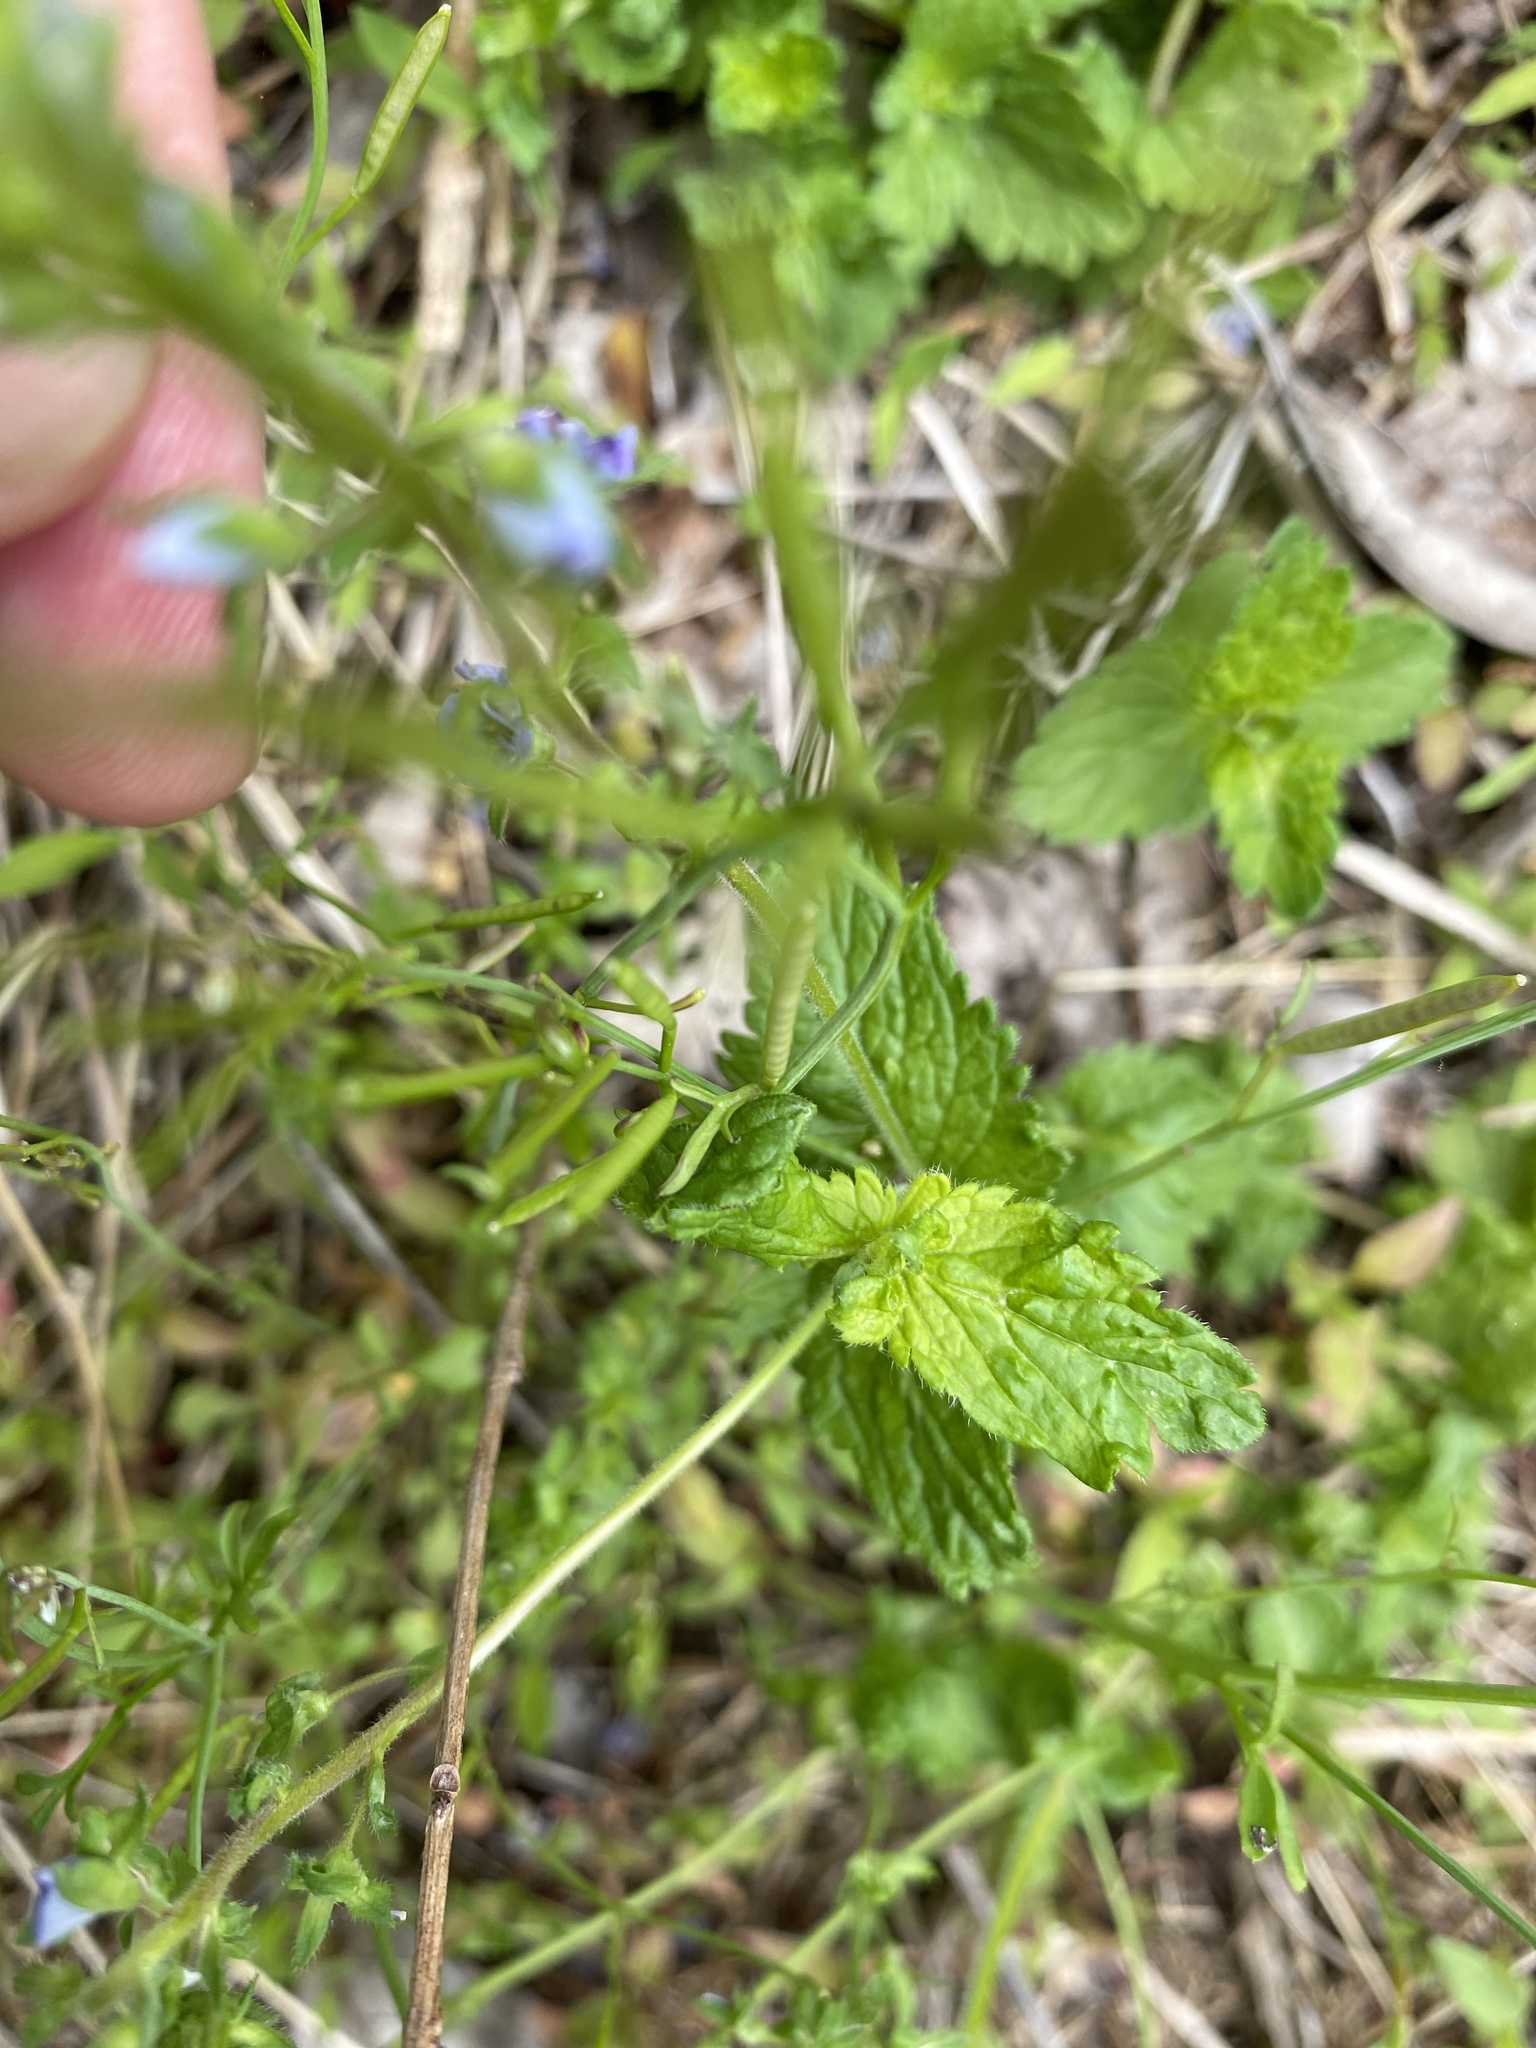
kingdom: Plantae
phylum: Tracheophyta
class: Magnoliopsida
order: Lamiales
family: Plantaginaceae
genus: Veronica
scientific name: Veronica chamaedrys
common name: Germander speedwell
